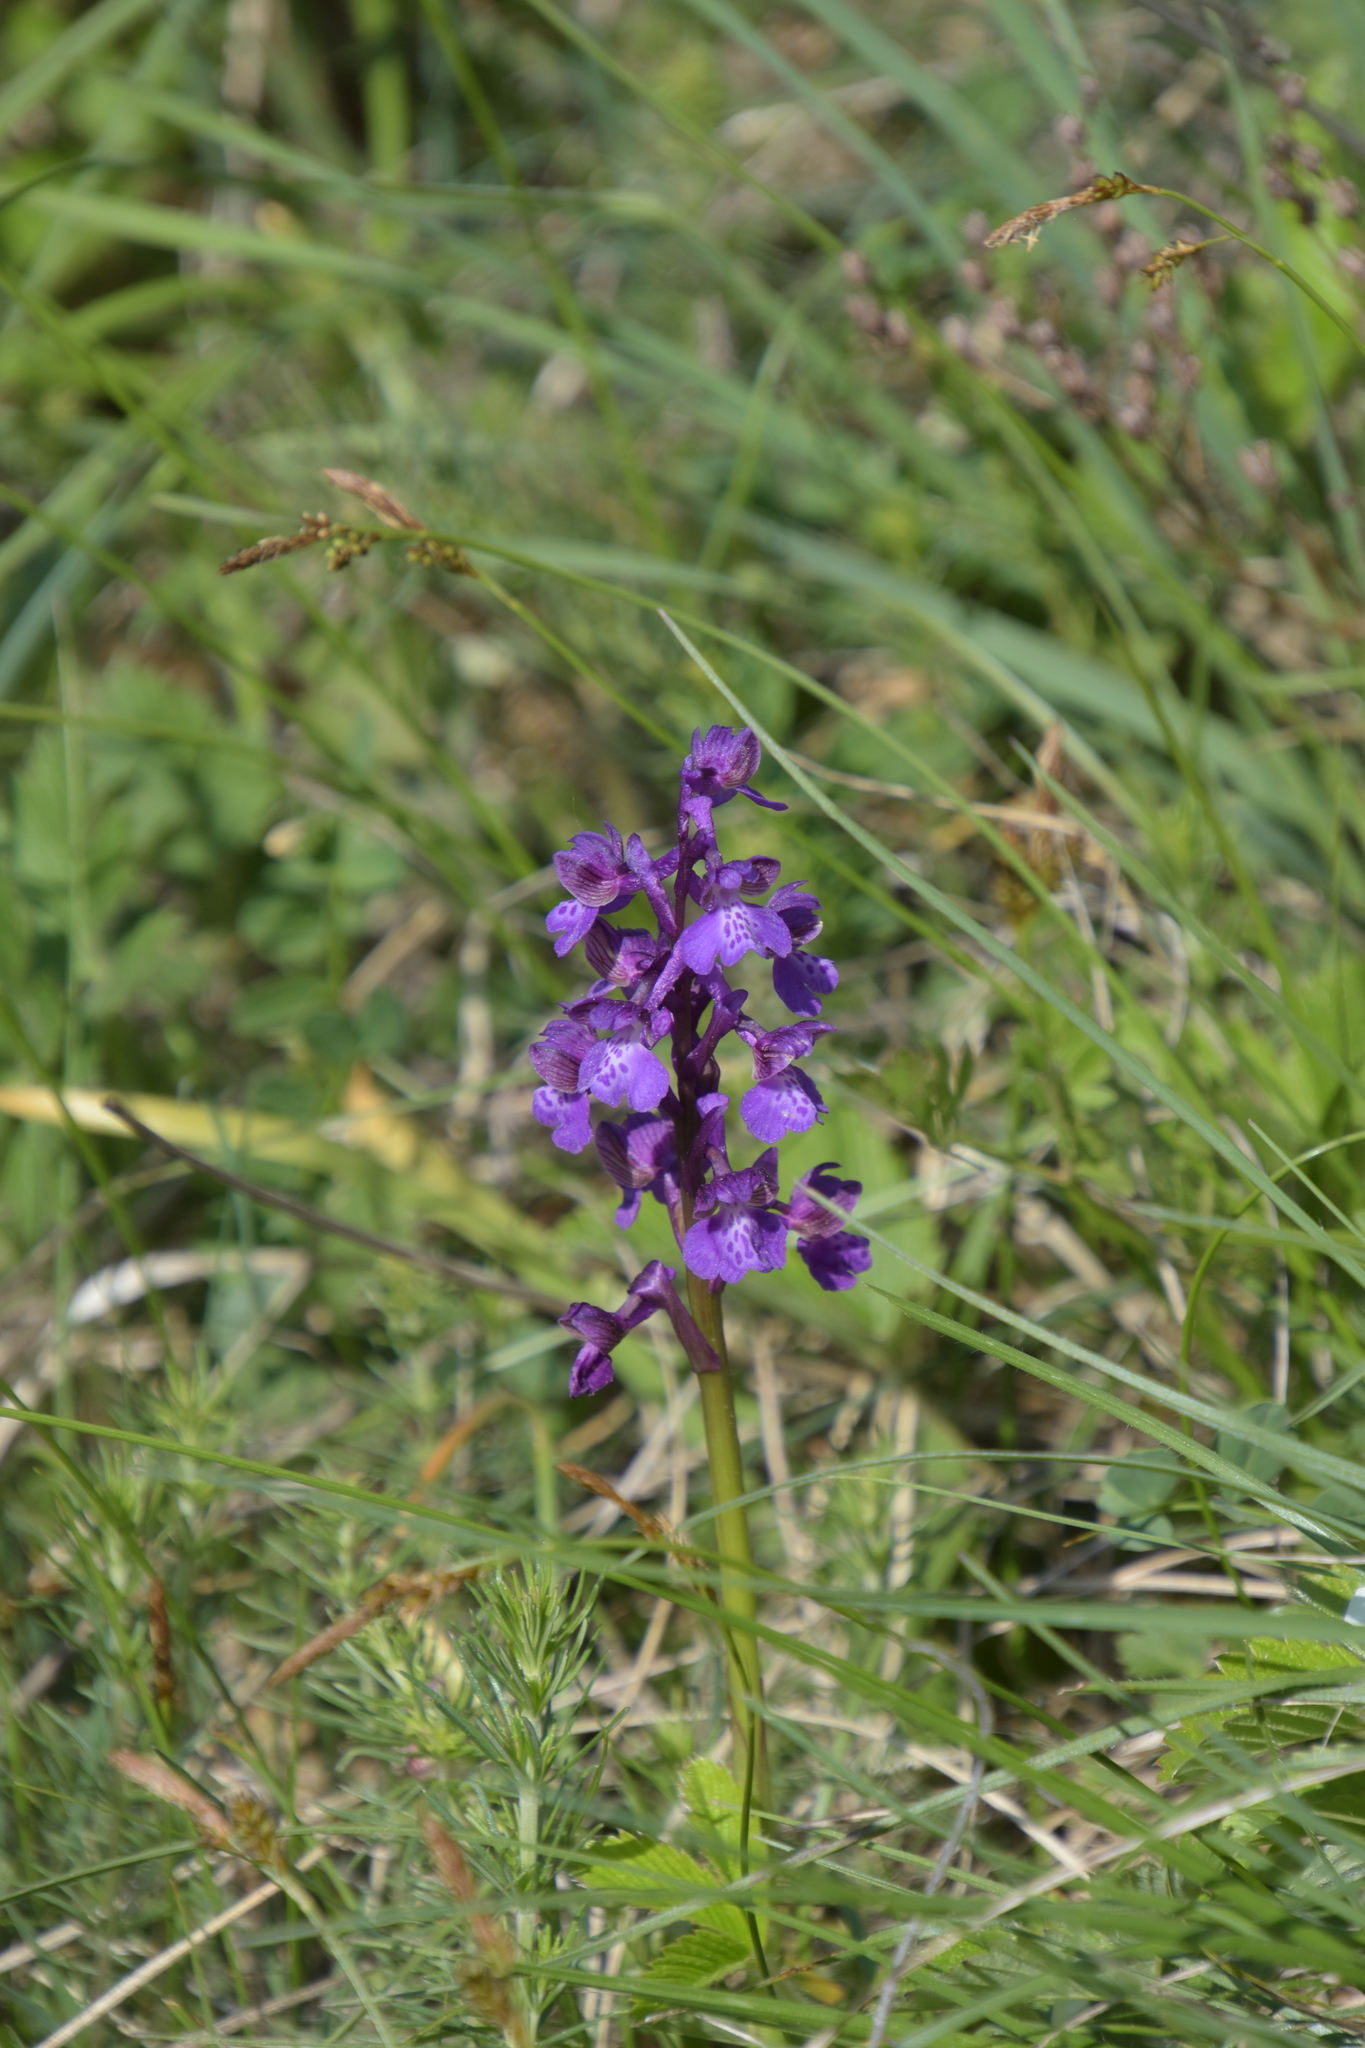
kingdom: Plantae
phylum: Tracheophyta
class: Liliopsida
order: Asparagales
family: Orchidaceae
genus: Anacamptis
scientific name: Anacamptis morio
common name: Green-winged orchid
